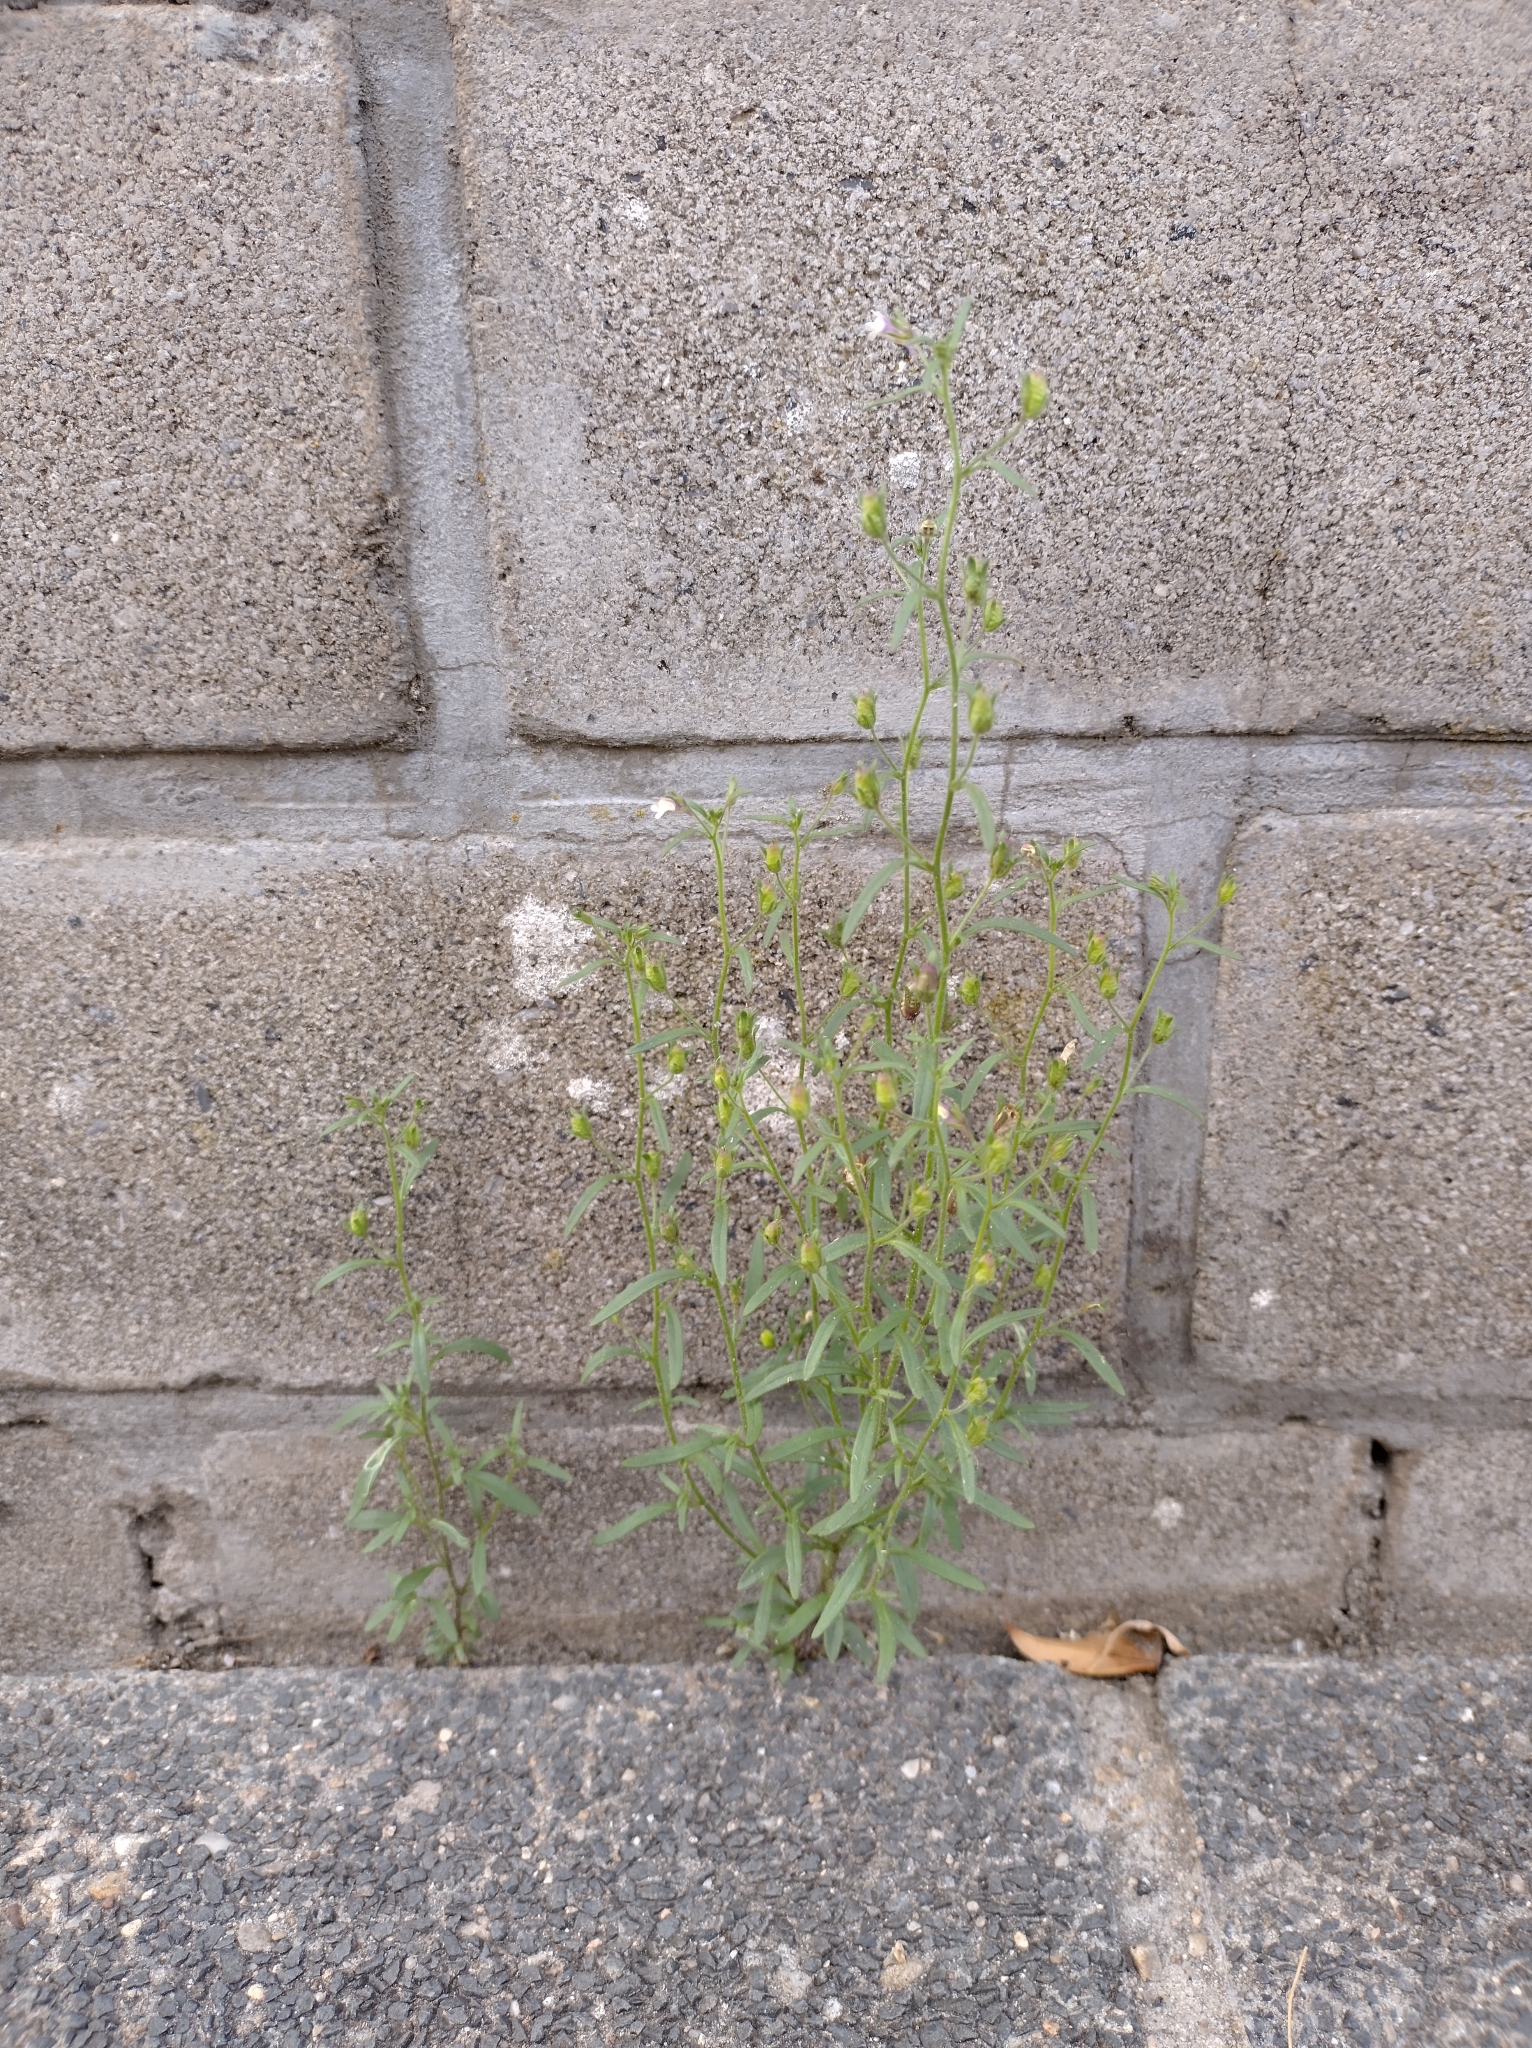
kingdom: Plantae
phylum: Tracheophyta
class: Magnoliopsida
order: Lamiales
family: Plantaginaceae
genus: Chaenorhinum
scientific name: Chaenorhinum minus
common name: Dwarf snapdragon
